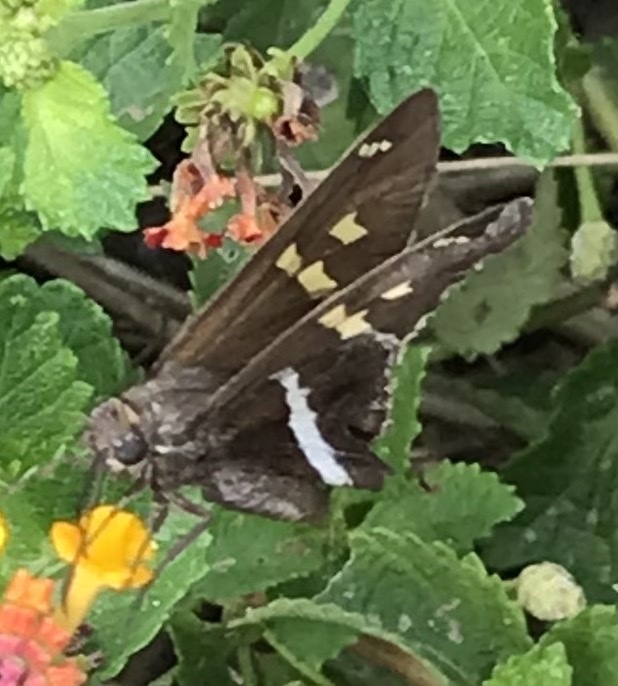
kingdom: Animalia
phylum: Arthropoda
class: Insecta
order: Lepidoptera
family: Hesperiidae
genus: Chioides
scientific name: Chioides catillus
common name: Silverbanded skipper
